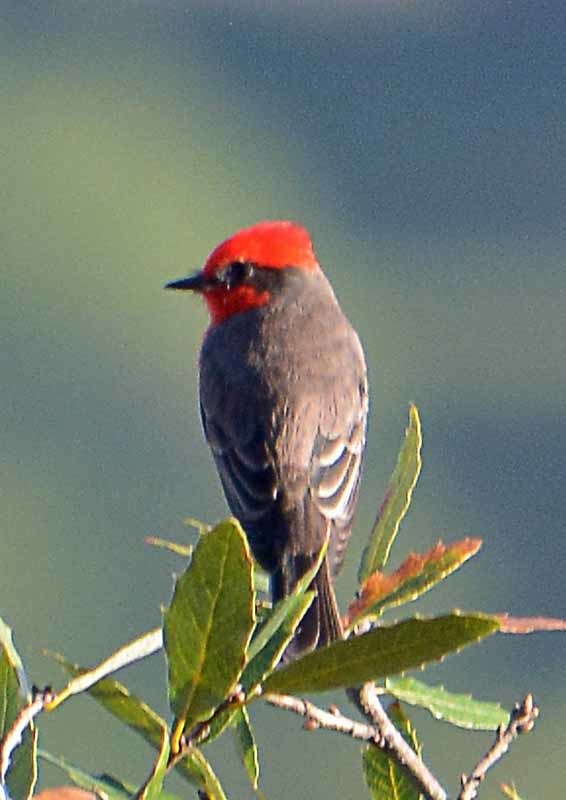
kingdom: Animalia
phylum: Chordata
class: Aves
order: Passeriformes
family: Tyrannidae
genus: Pyrocephalus
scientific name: Pyrocephalus rubinus
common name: Vermilion flycatcher
